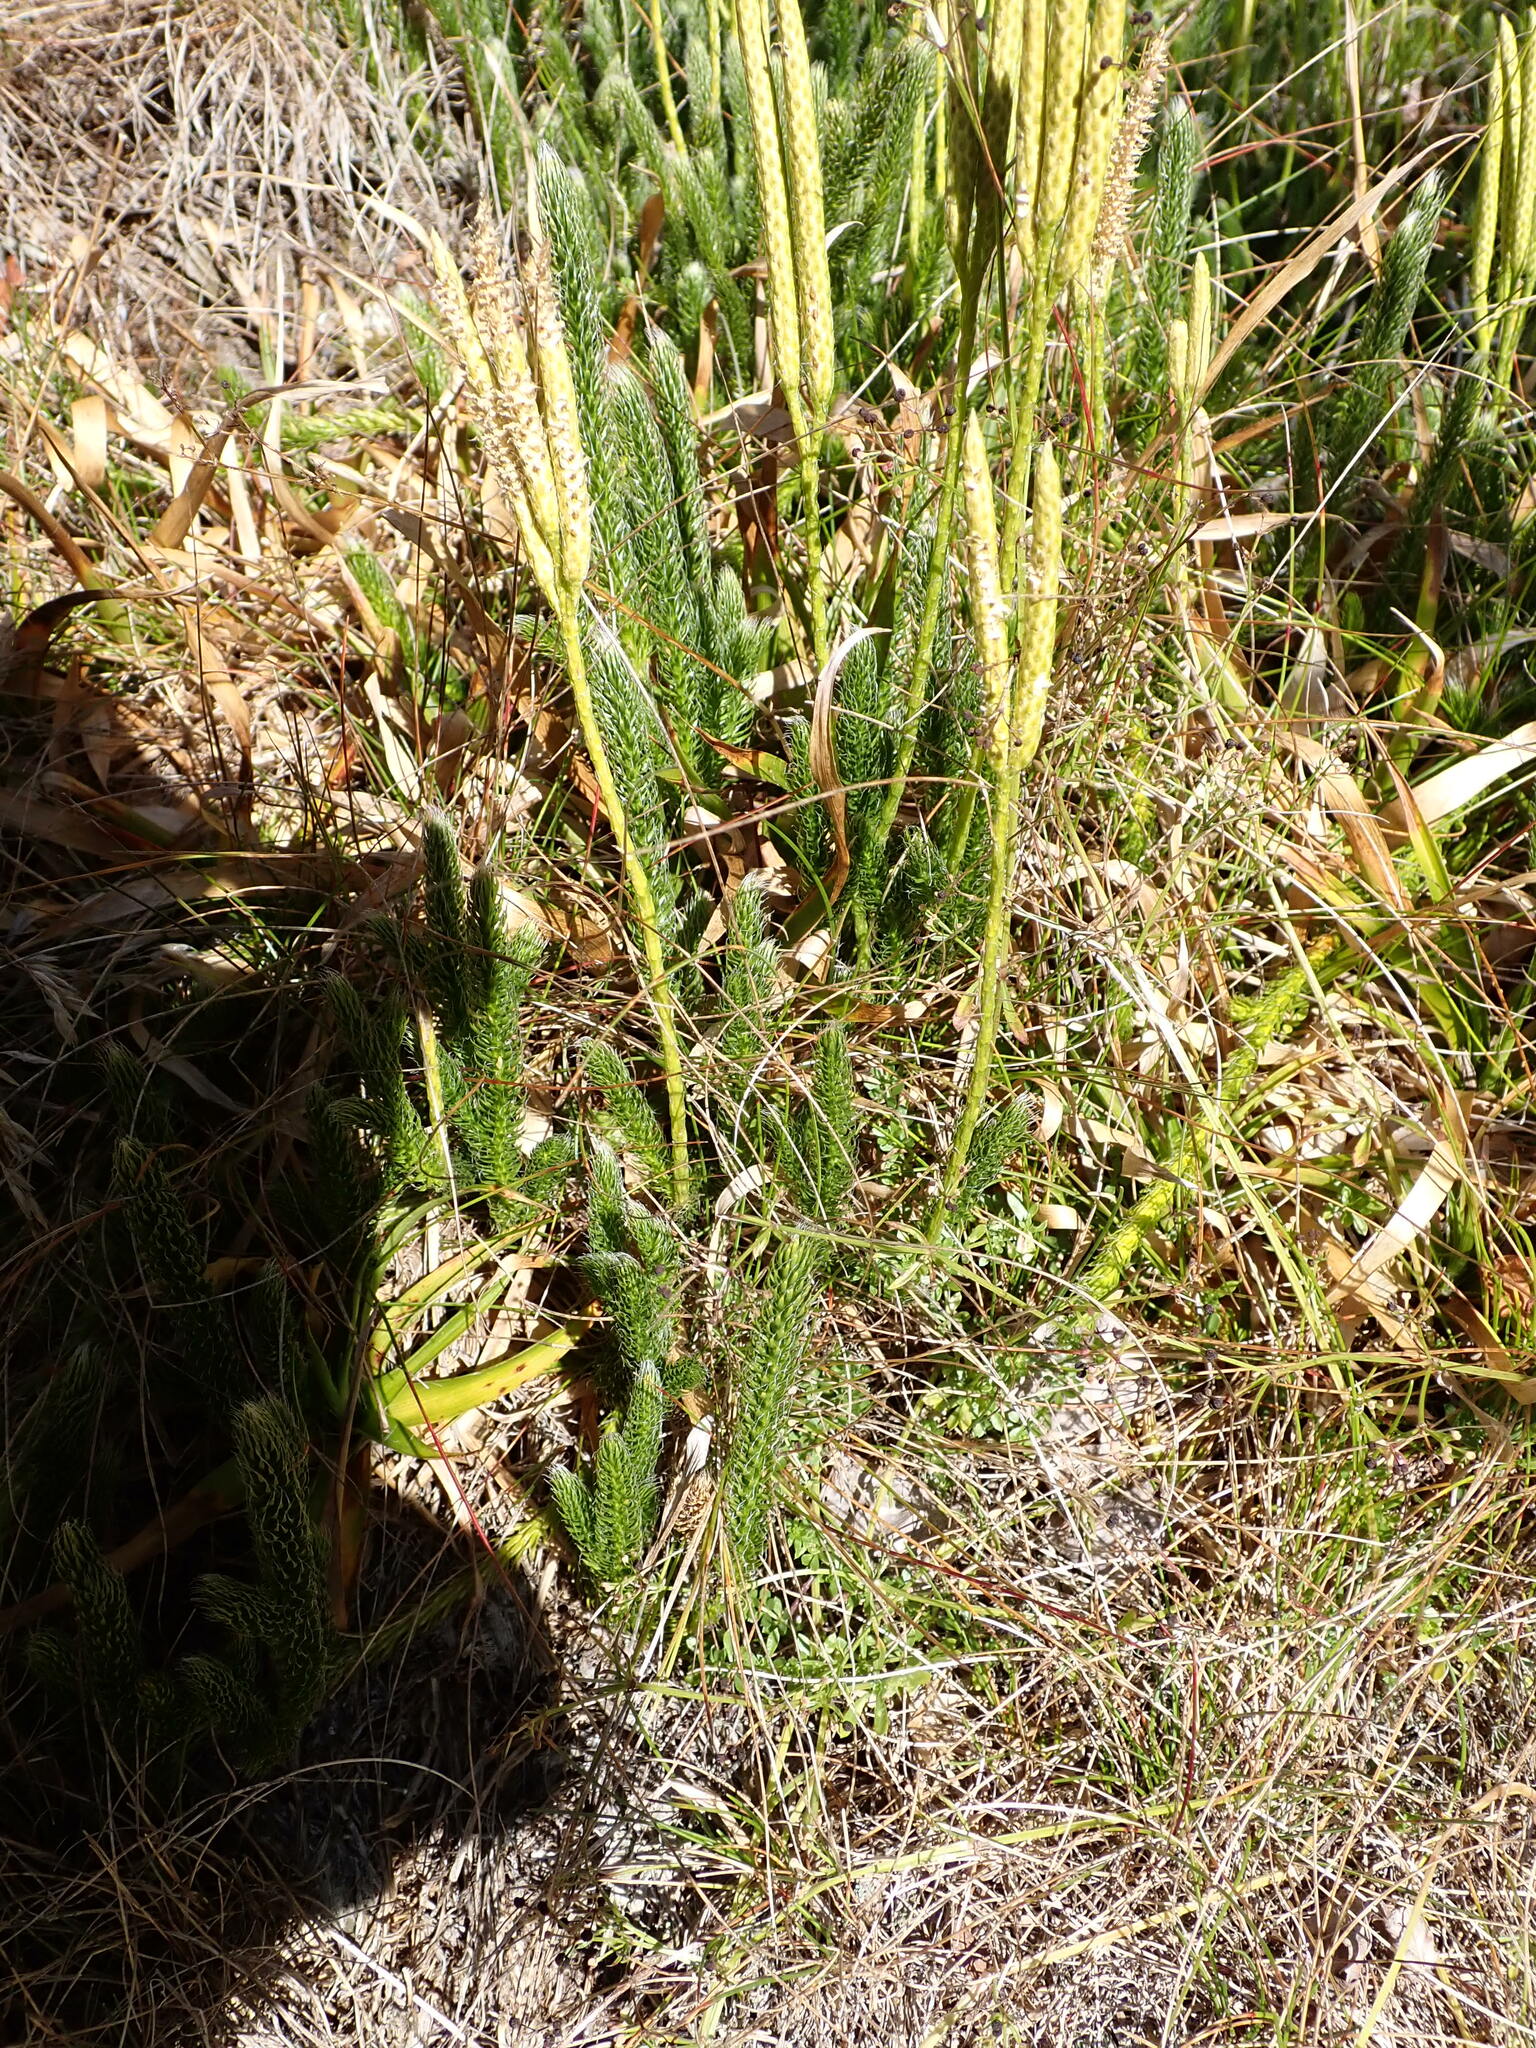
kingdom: Plantae
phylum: Tracheophyta
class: Lycopodiopsida
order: Lycopodiales
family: Lycopodiaceae
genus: Lycopodium
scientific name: Lycopodium clavatum
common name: Stag's-horn clubmoss
